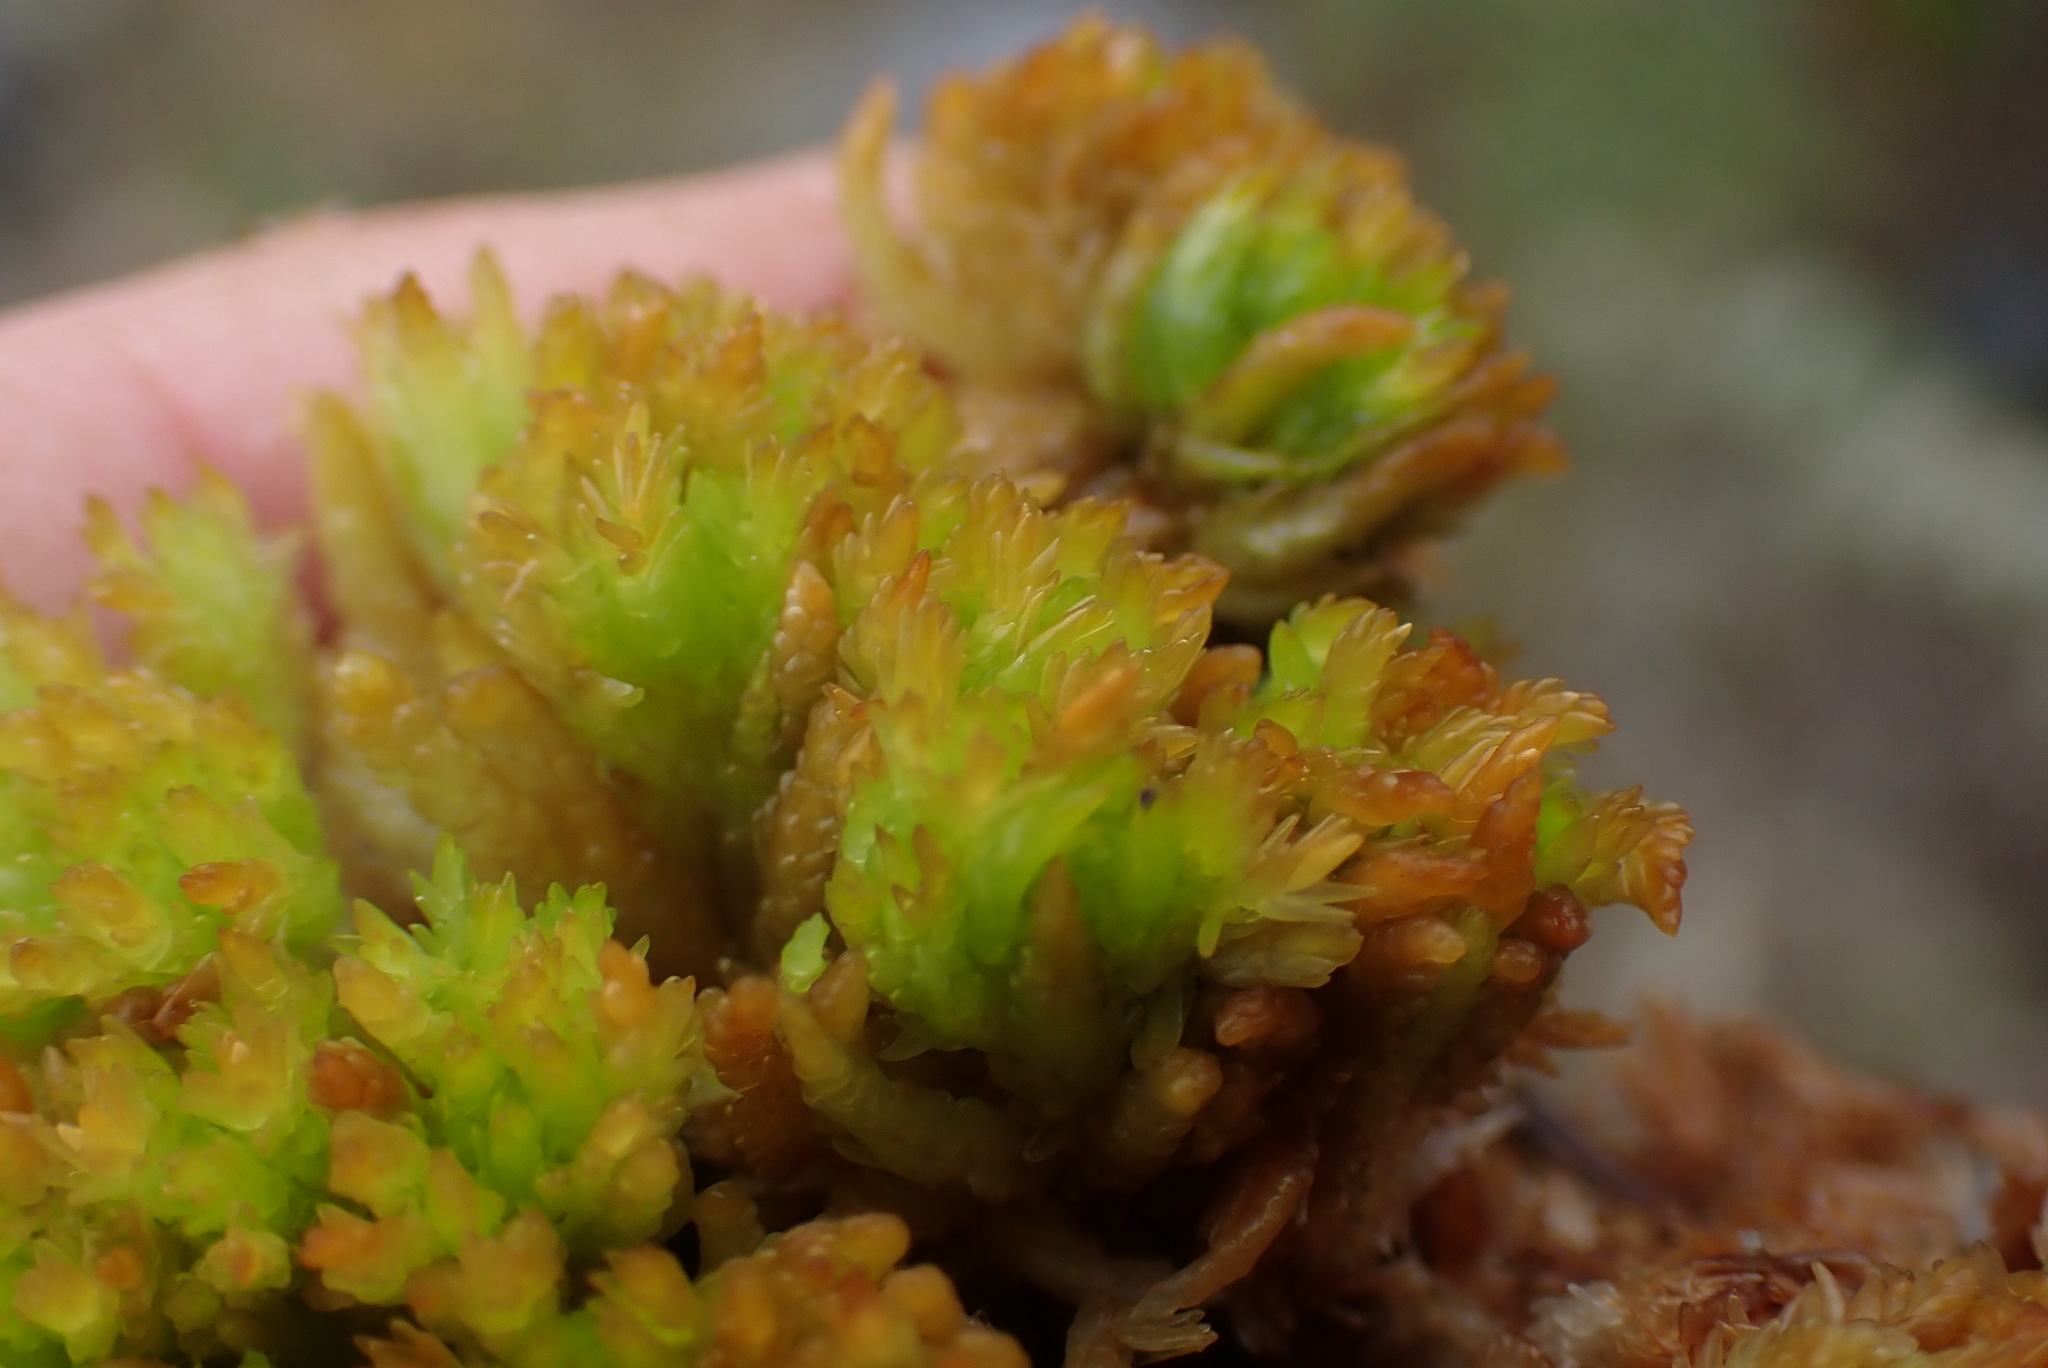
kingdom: Plantae
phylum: Bryophyta
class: Sphagnopsida
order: Sphagnales
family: Sphagnaceae
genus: Sphagnum
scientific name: Sphagnum compactum
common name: Compact peat moss
